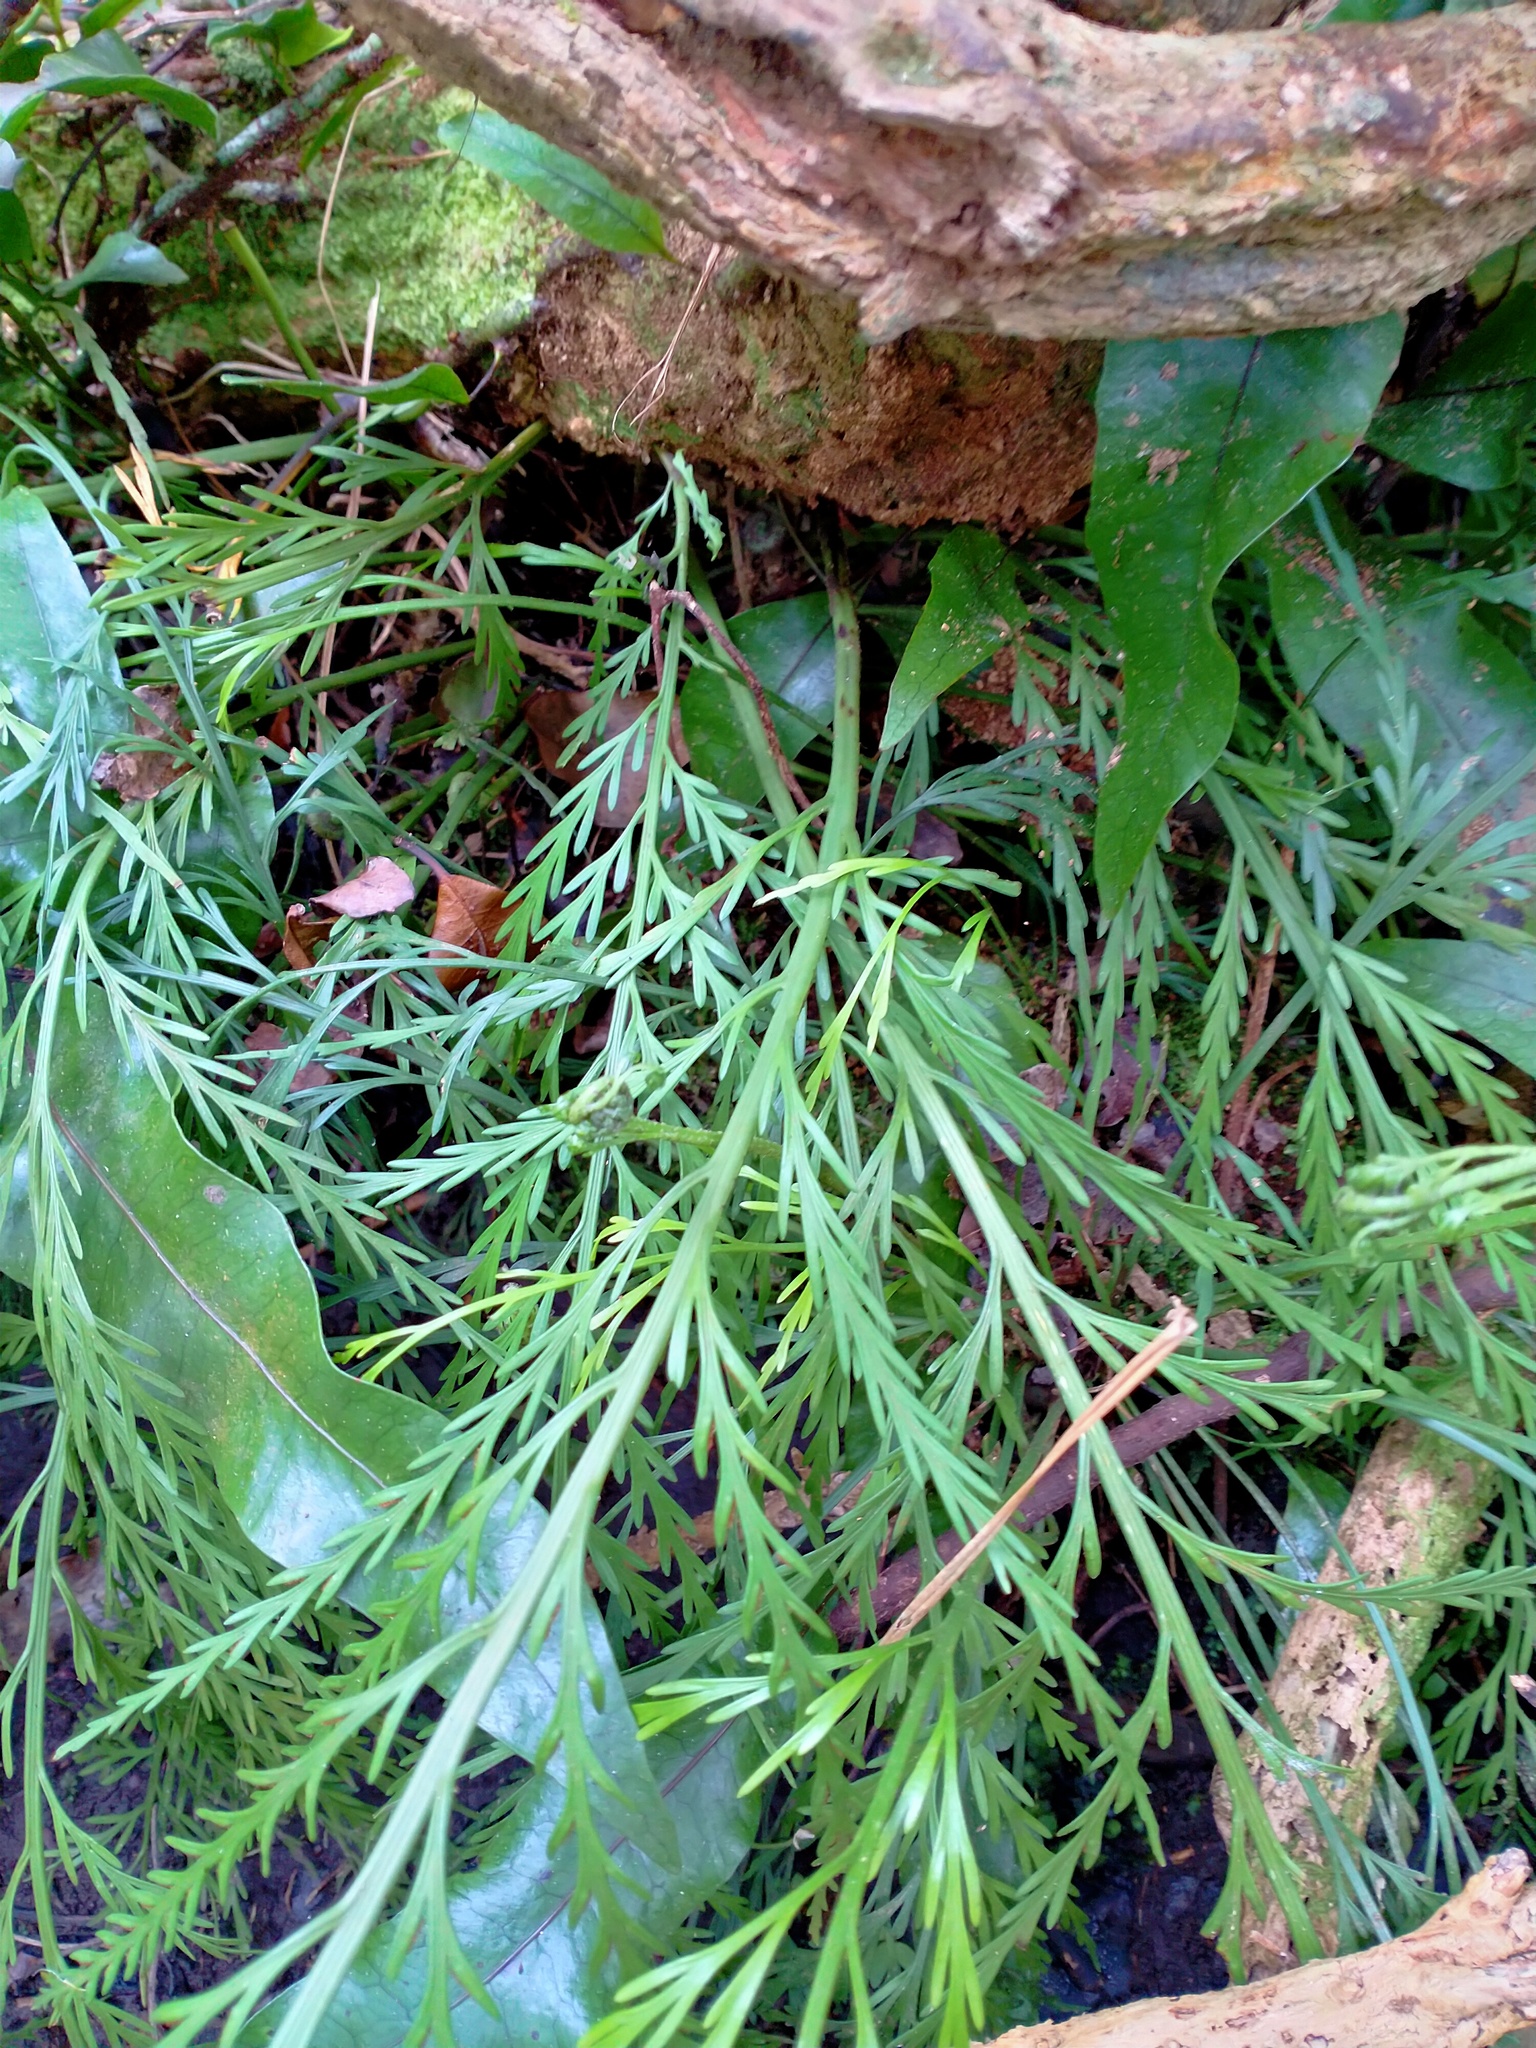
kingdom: Plantae
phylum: Tracheophyta
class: Polypodiopsida
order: Polypodiales
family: Aspleniaceae
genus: Asplenium
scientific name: Asplenium flaccidum
